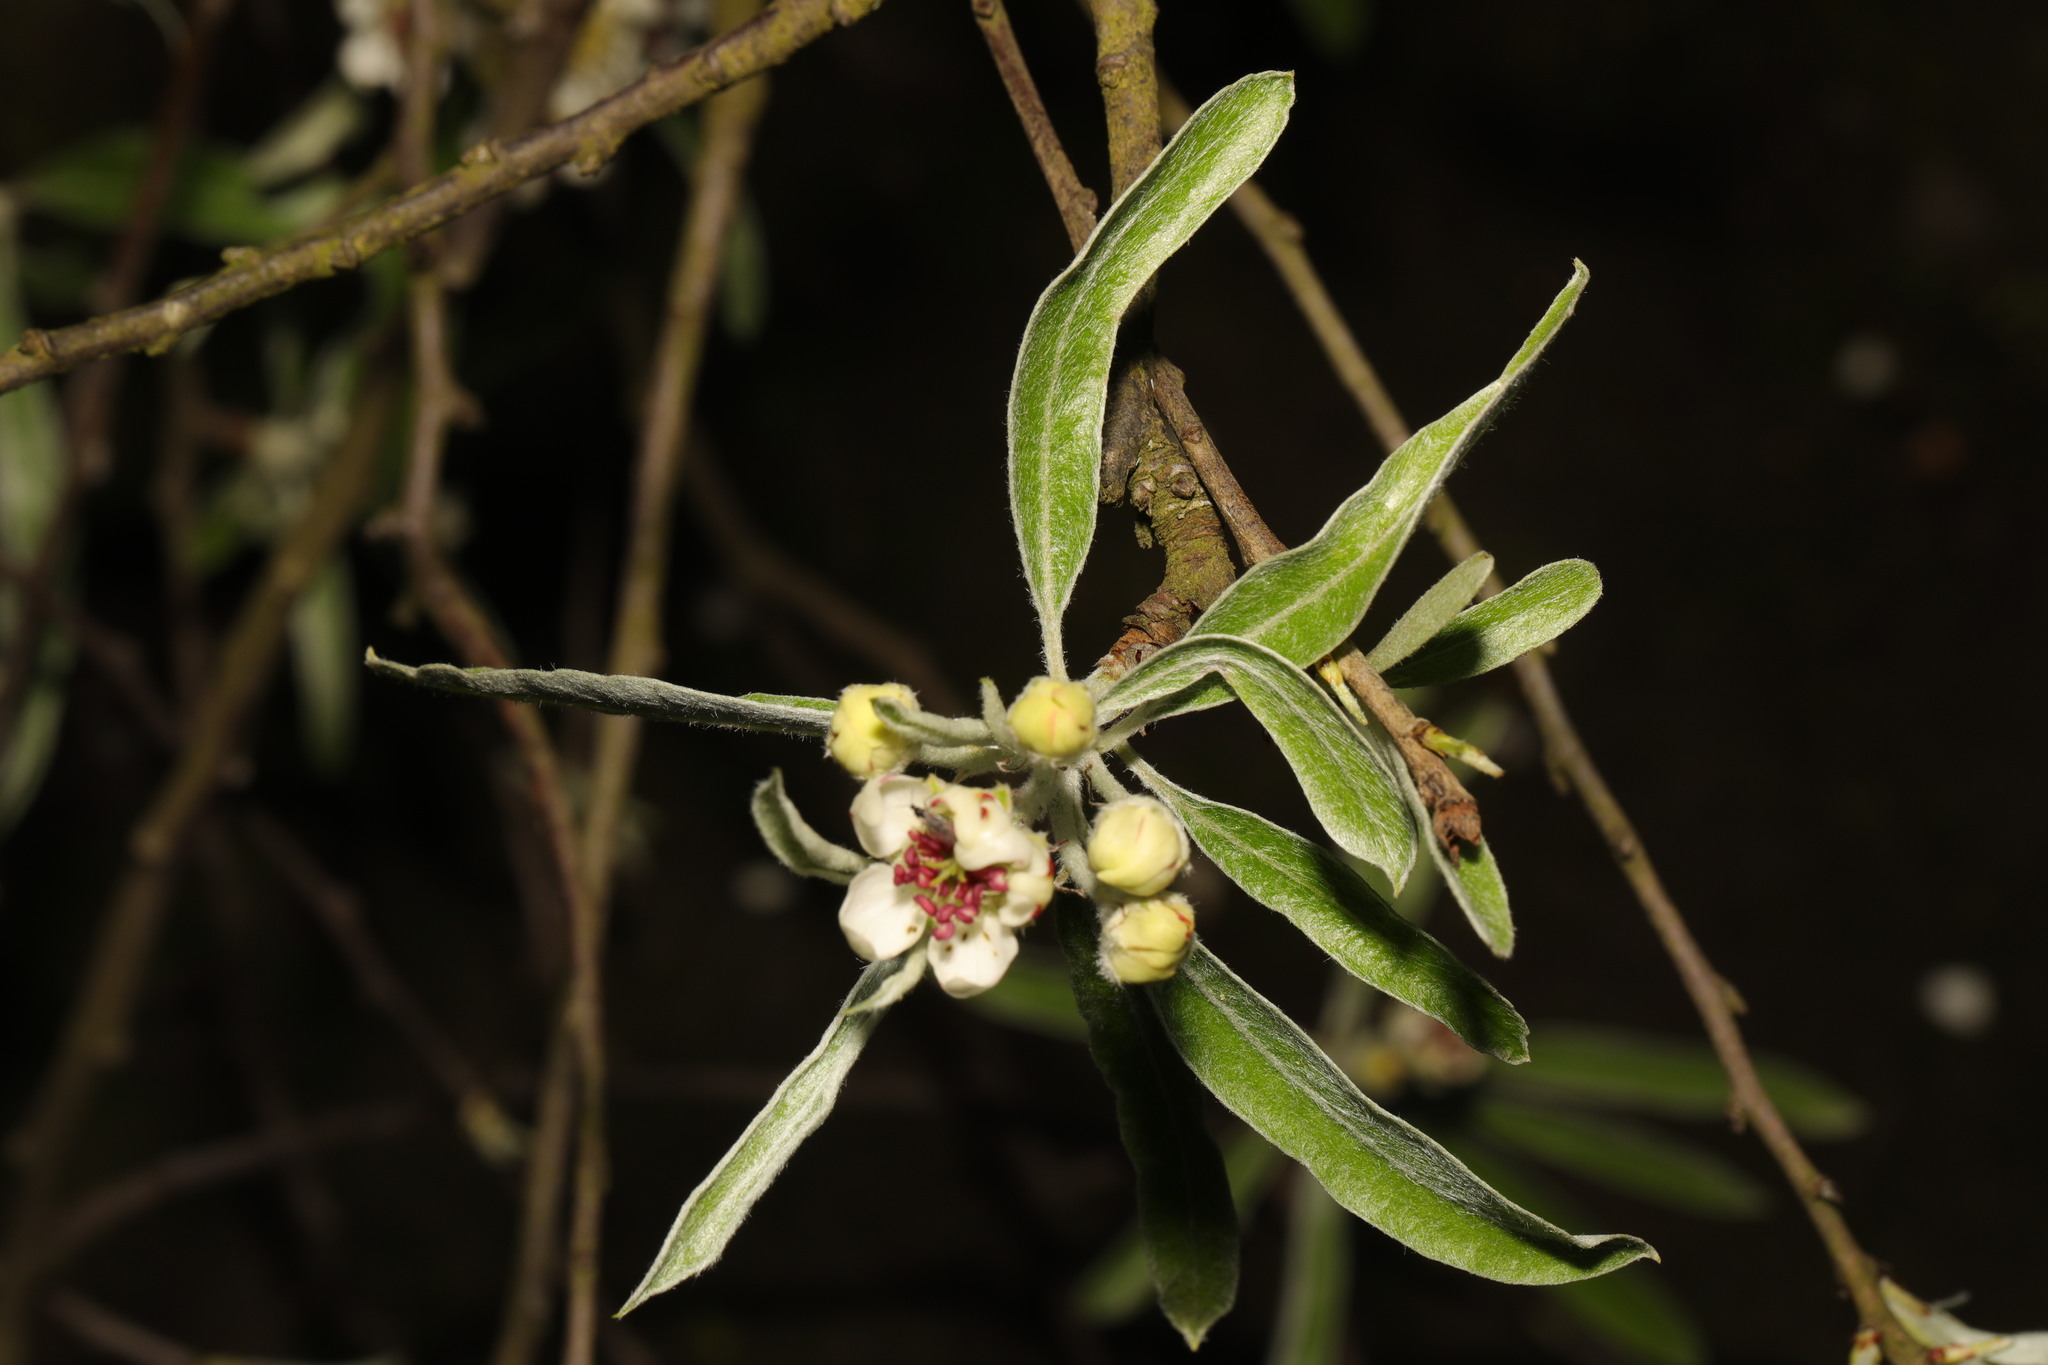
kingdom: Plantae
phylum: Tracheophyta
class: Magnoliopsida
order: Rosales
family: Rosaceae
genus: Pyrus
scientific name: Pyrus salicifolia
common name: Willow-leaved pear
